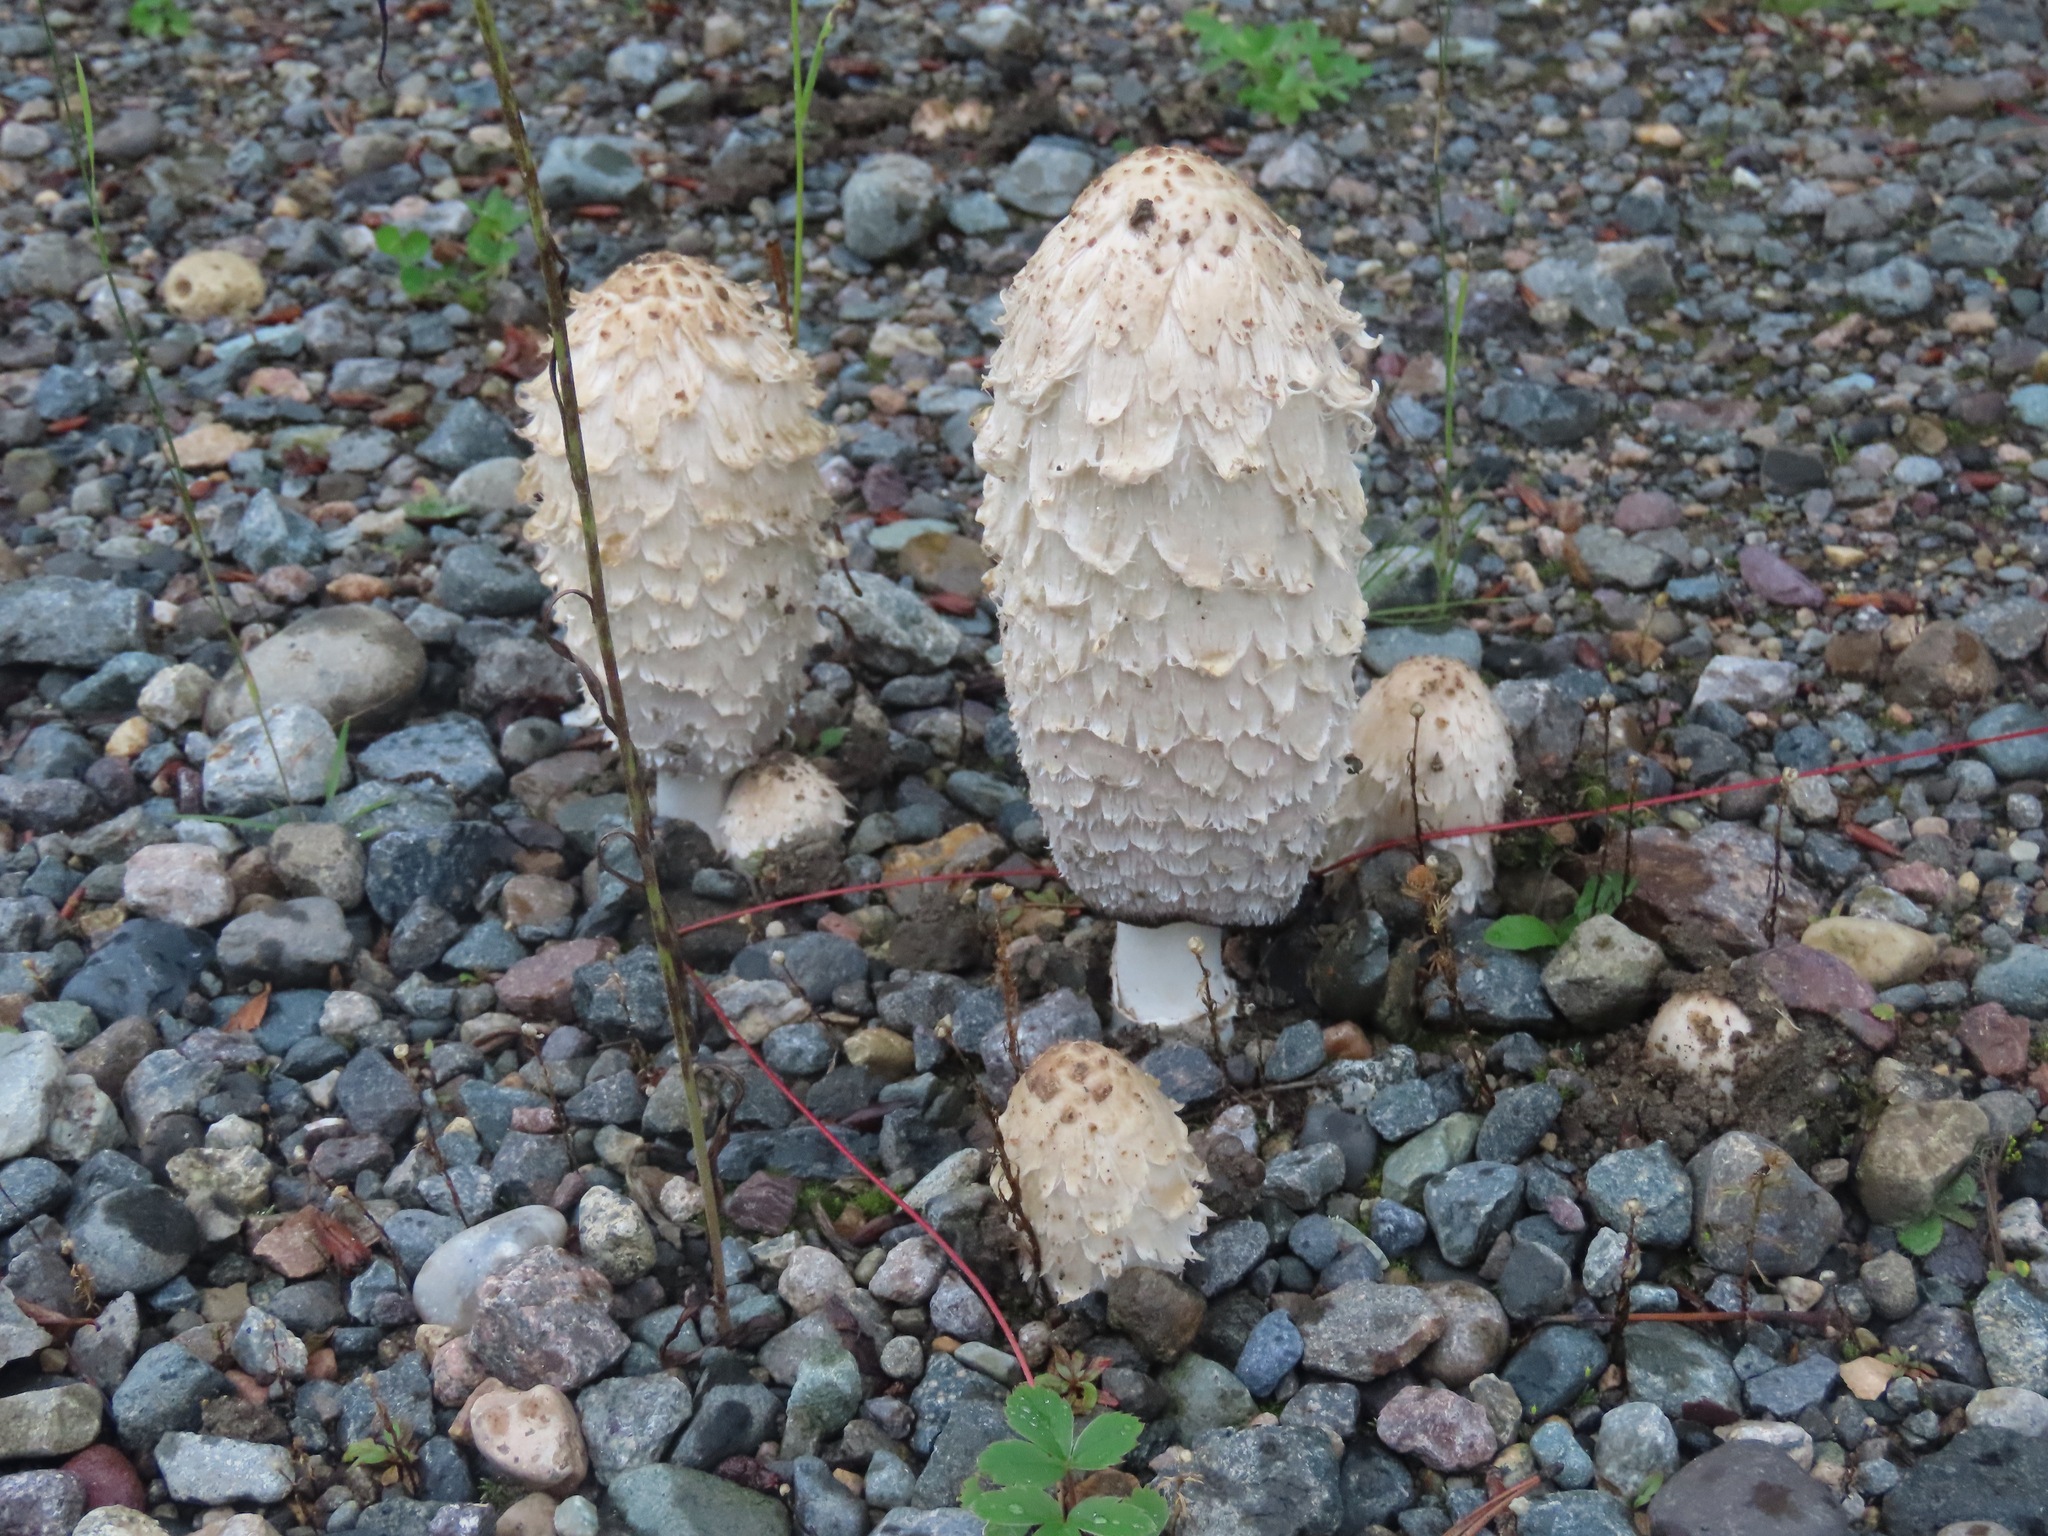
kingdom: Fungi
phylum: Basidiomycota
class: Agaricomycetes
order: Agaricales
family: Agaricaceae
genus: Coprinus
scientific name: Coprinus comatus
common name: Lawyer's wig
